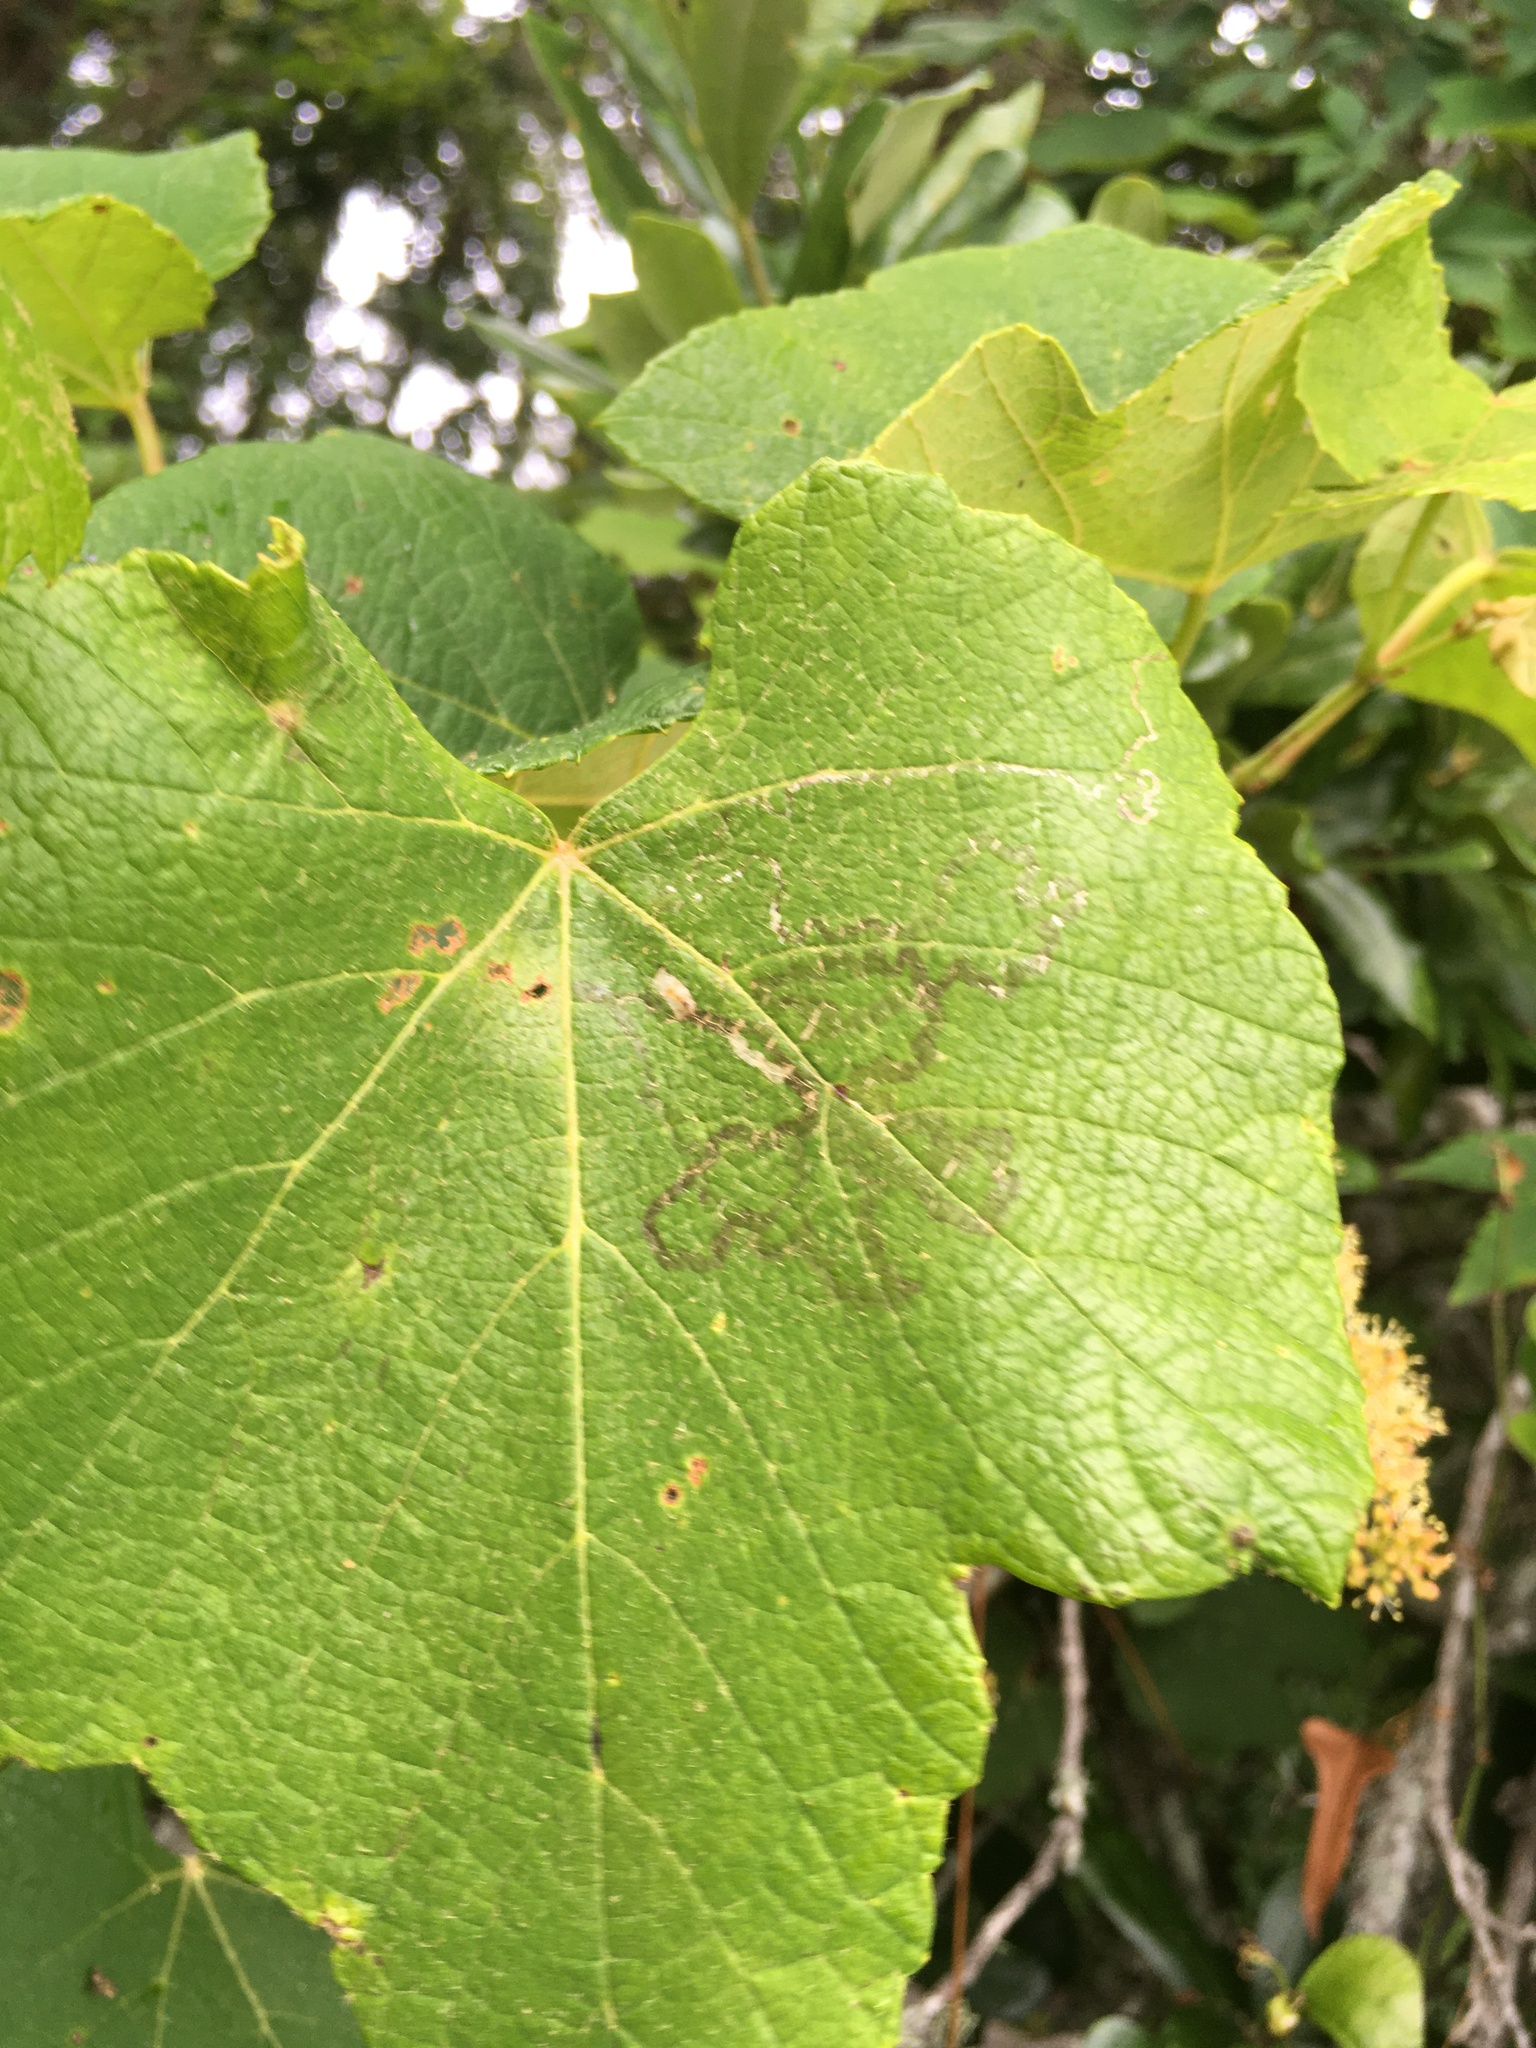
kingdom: Animalia
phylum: Arthropoda
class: Insecta
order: Lepidoptera
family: Gracillariidae
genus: Phyllocnistis
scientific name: Phyllocnistis vitegenella
